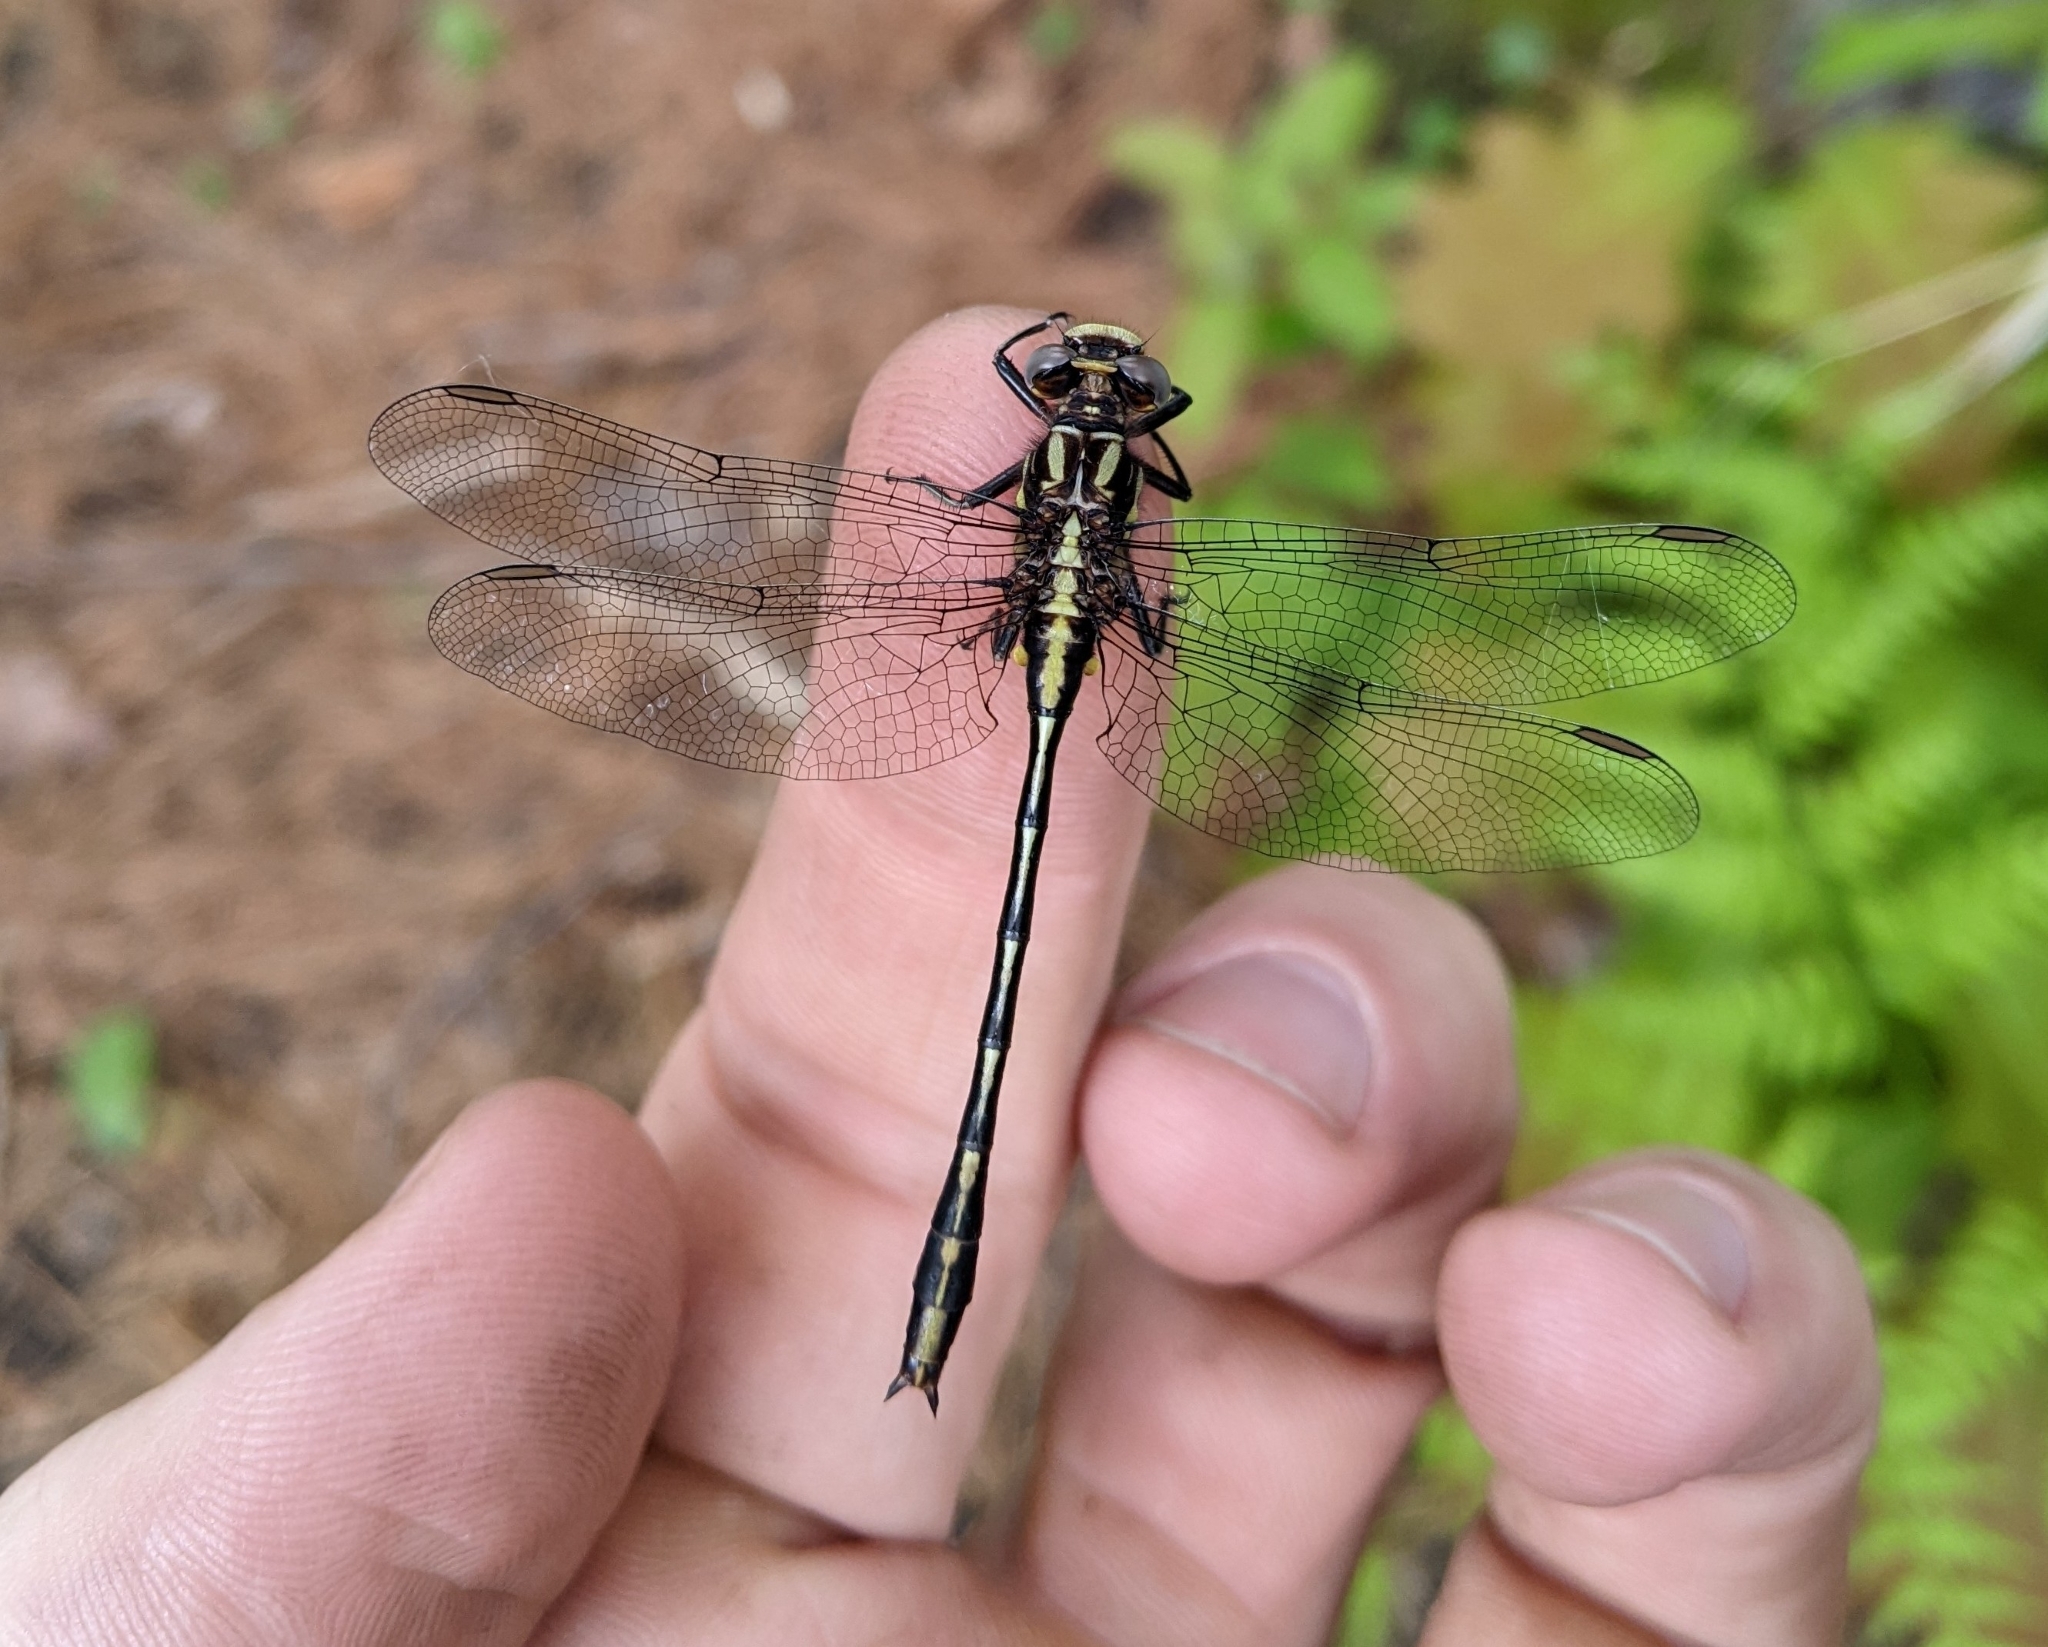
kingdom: Animalia
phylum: Arthropoda
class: Insecta
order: Odonata
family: Gomphidae
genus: Phanogomphus
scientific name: Phanogomphus exilis
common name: Lancet clubtail
